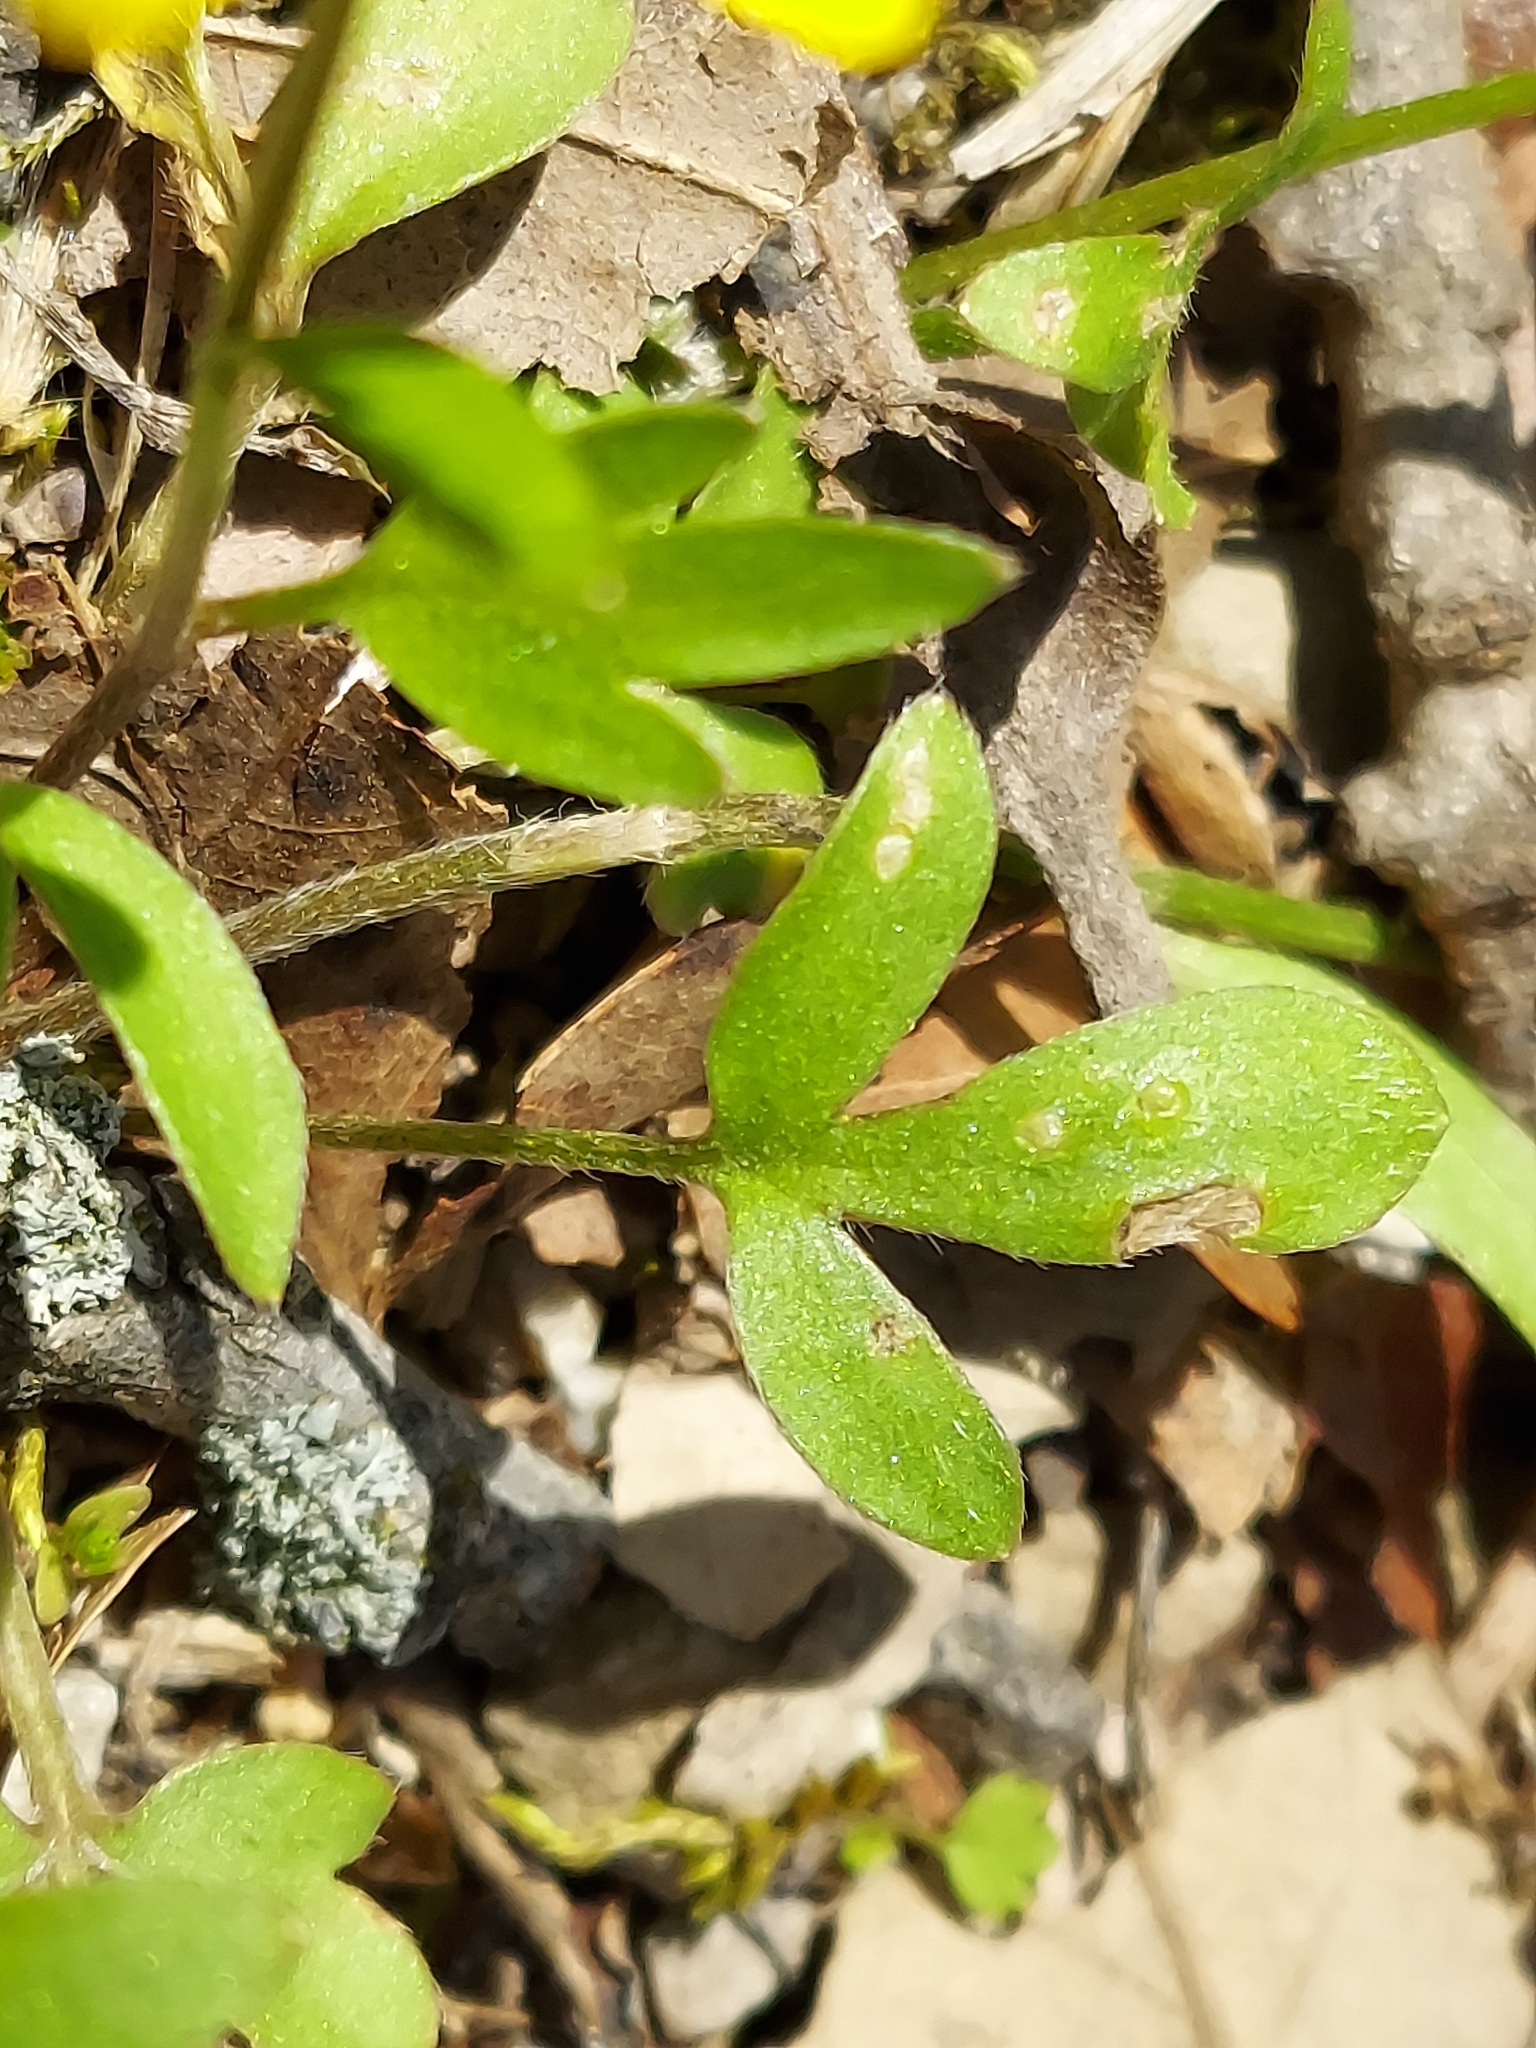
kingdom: Plantae
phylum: Tracheophyta
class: Magnoliopsida
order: Ranunculales
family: Ranunculaceae
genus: Ranunculus
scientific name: Ranunculus fascicularis
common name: Early buttercup
